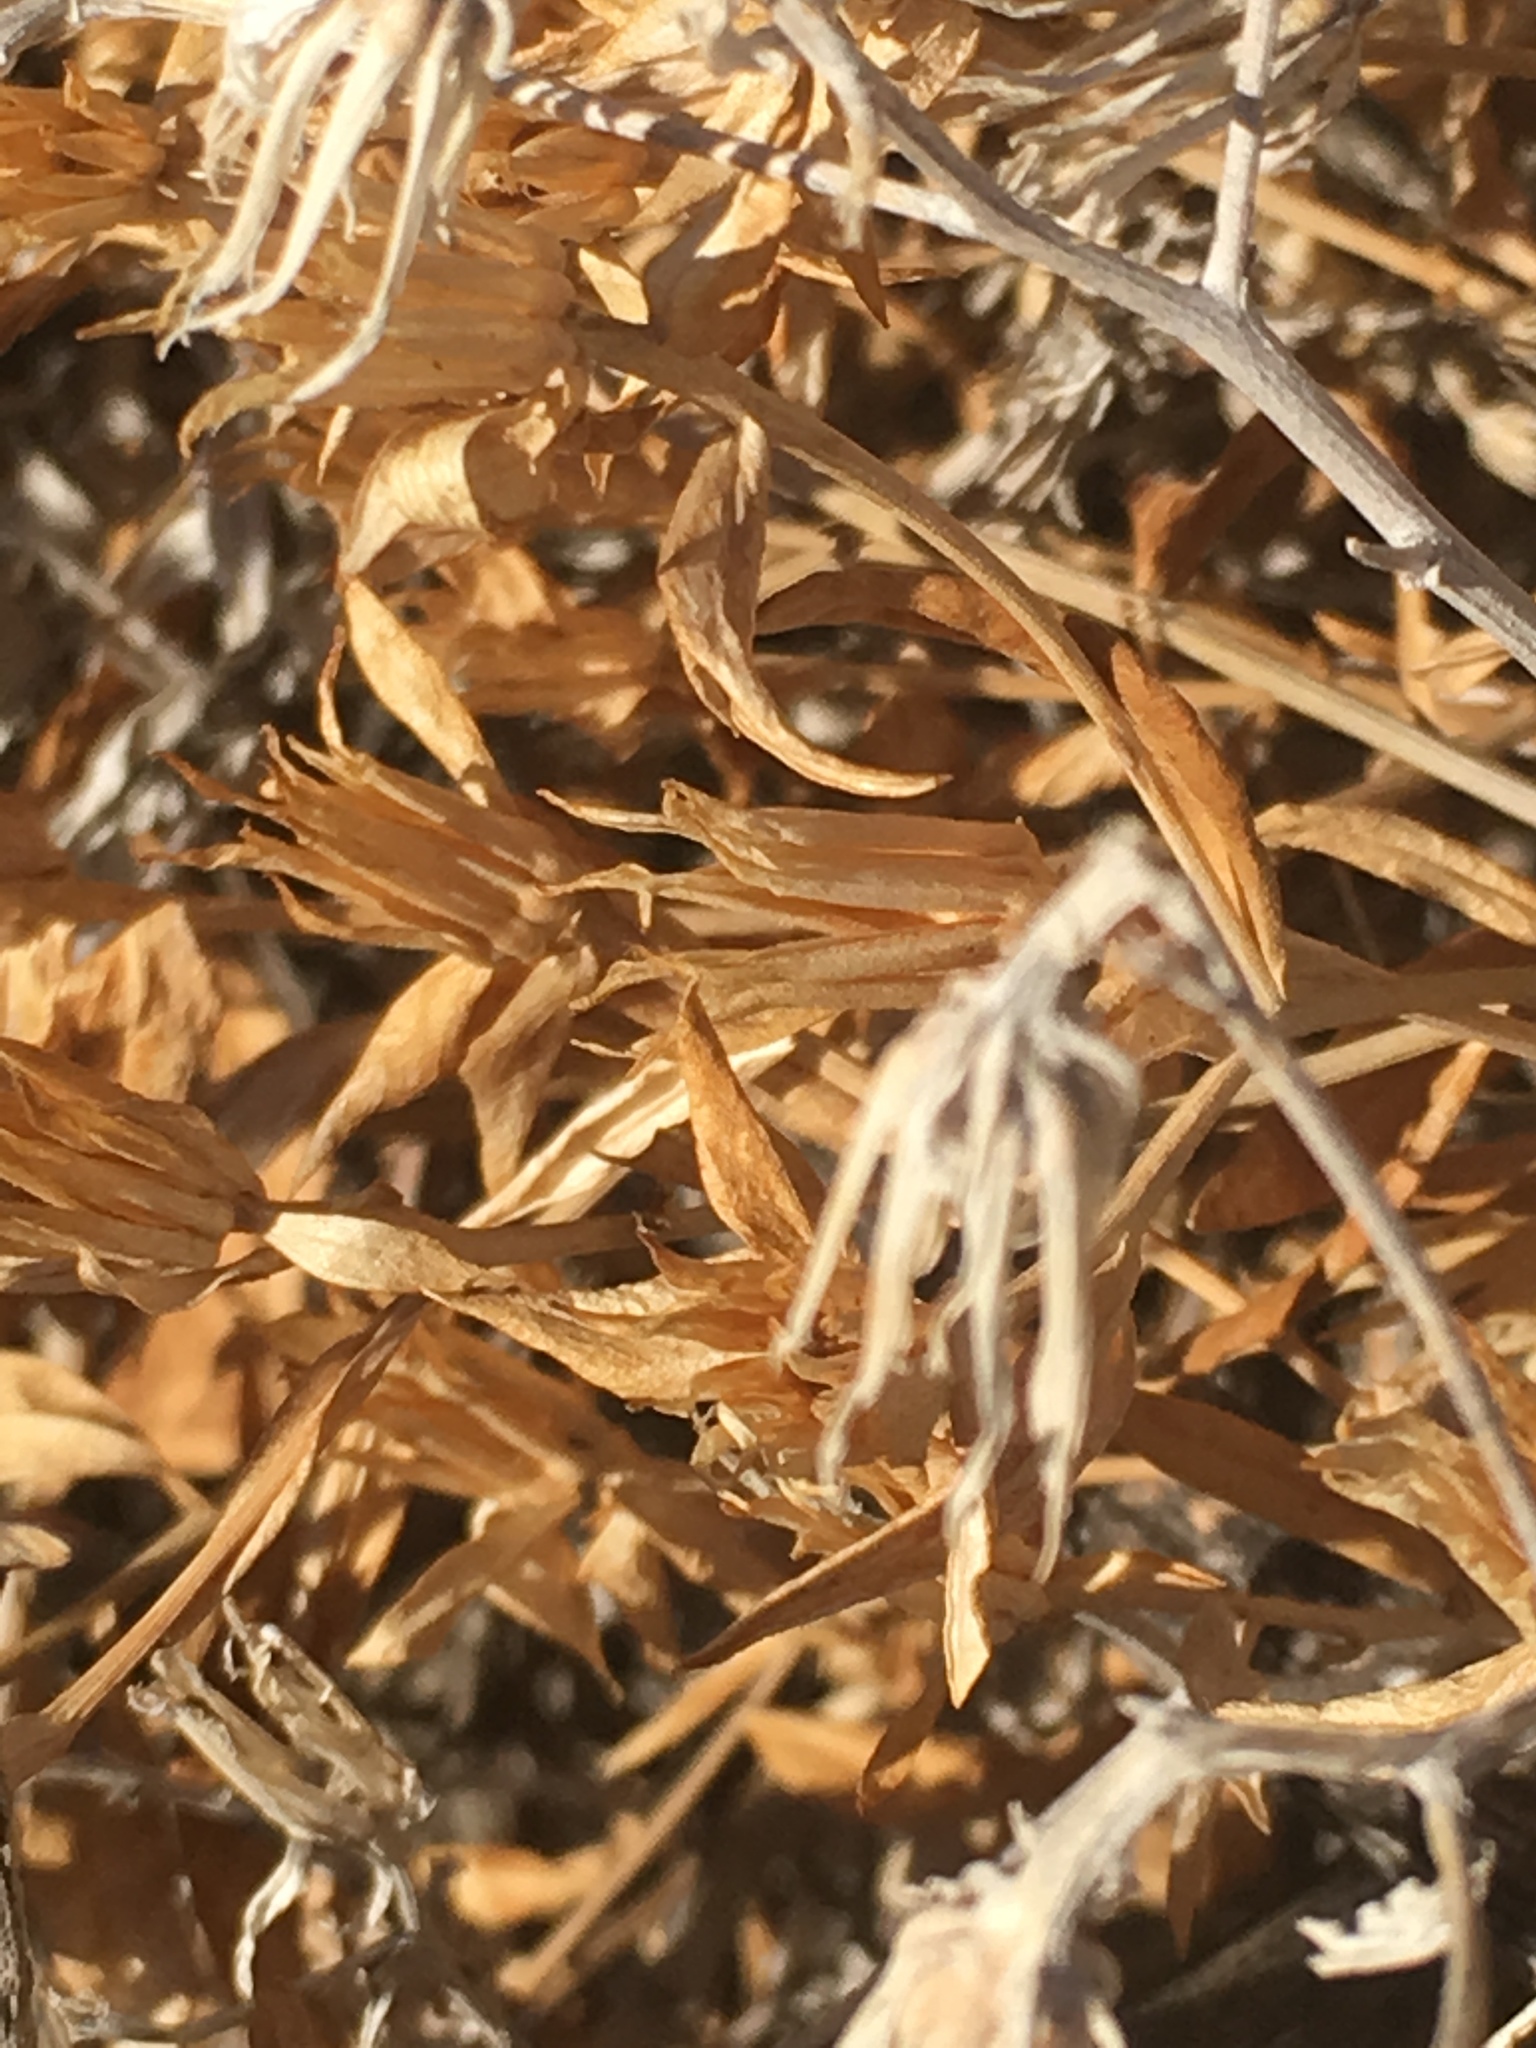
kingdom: Plantae
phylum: Tracheophyta
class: Magnoliopsida
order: Asterales
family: Asteraceae
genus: Trixis
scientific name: Trixis californica
